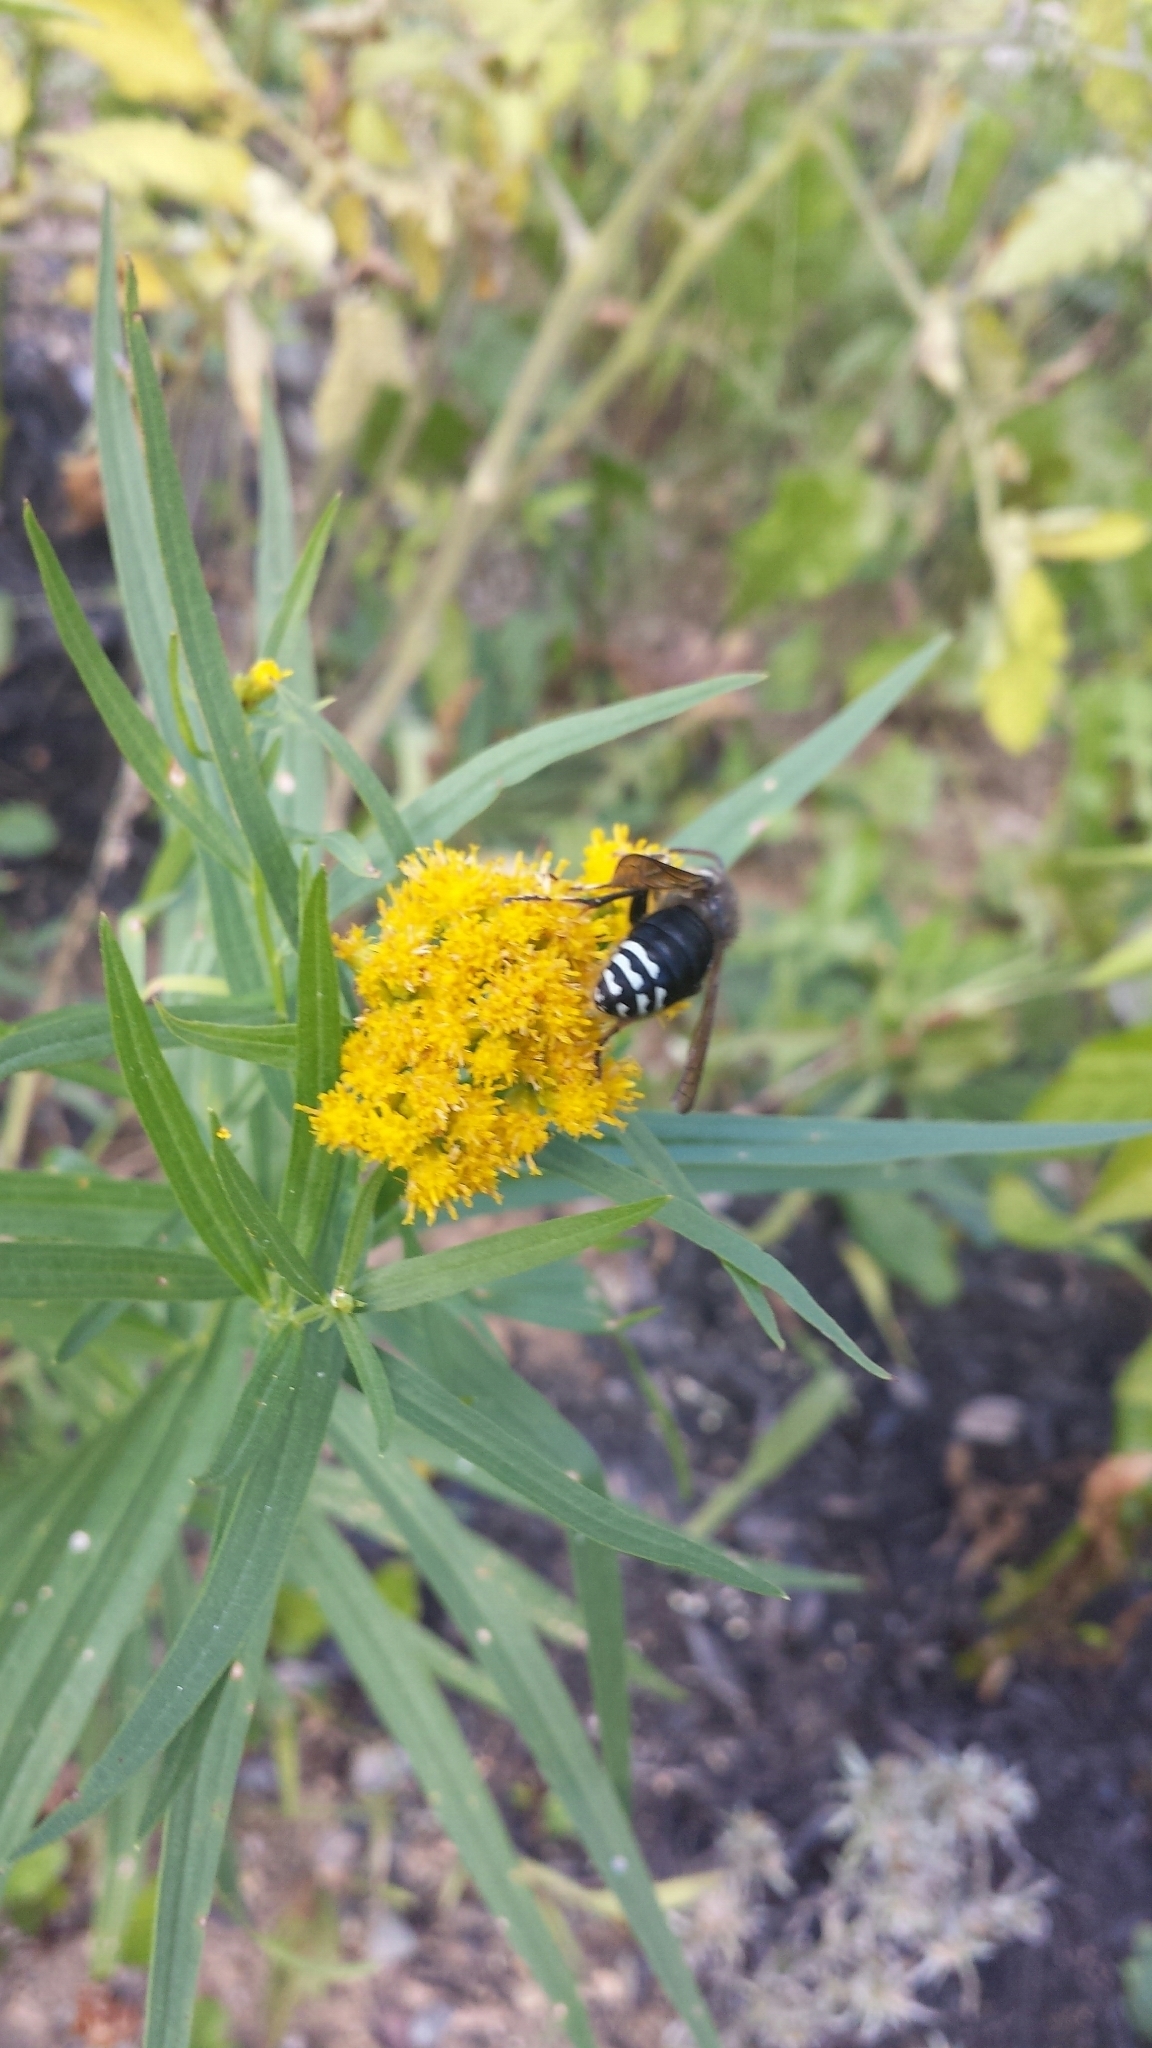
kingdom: Animalia
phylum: Arthropoda
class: Insecta
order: Hymenoptera
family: Vespidae
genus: Dolichovespula
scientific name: Dolichovespula maculata
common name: Bald-faced hornet
